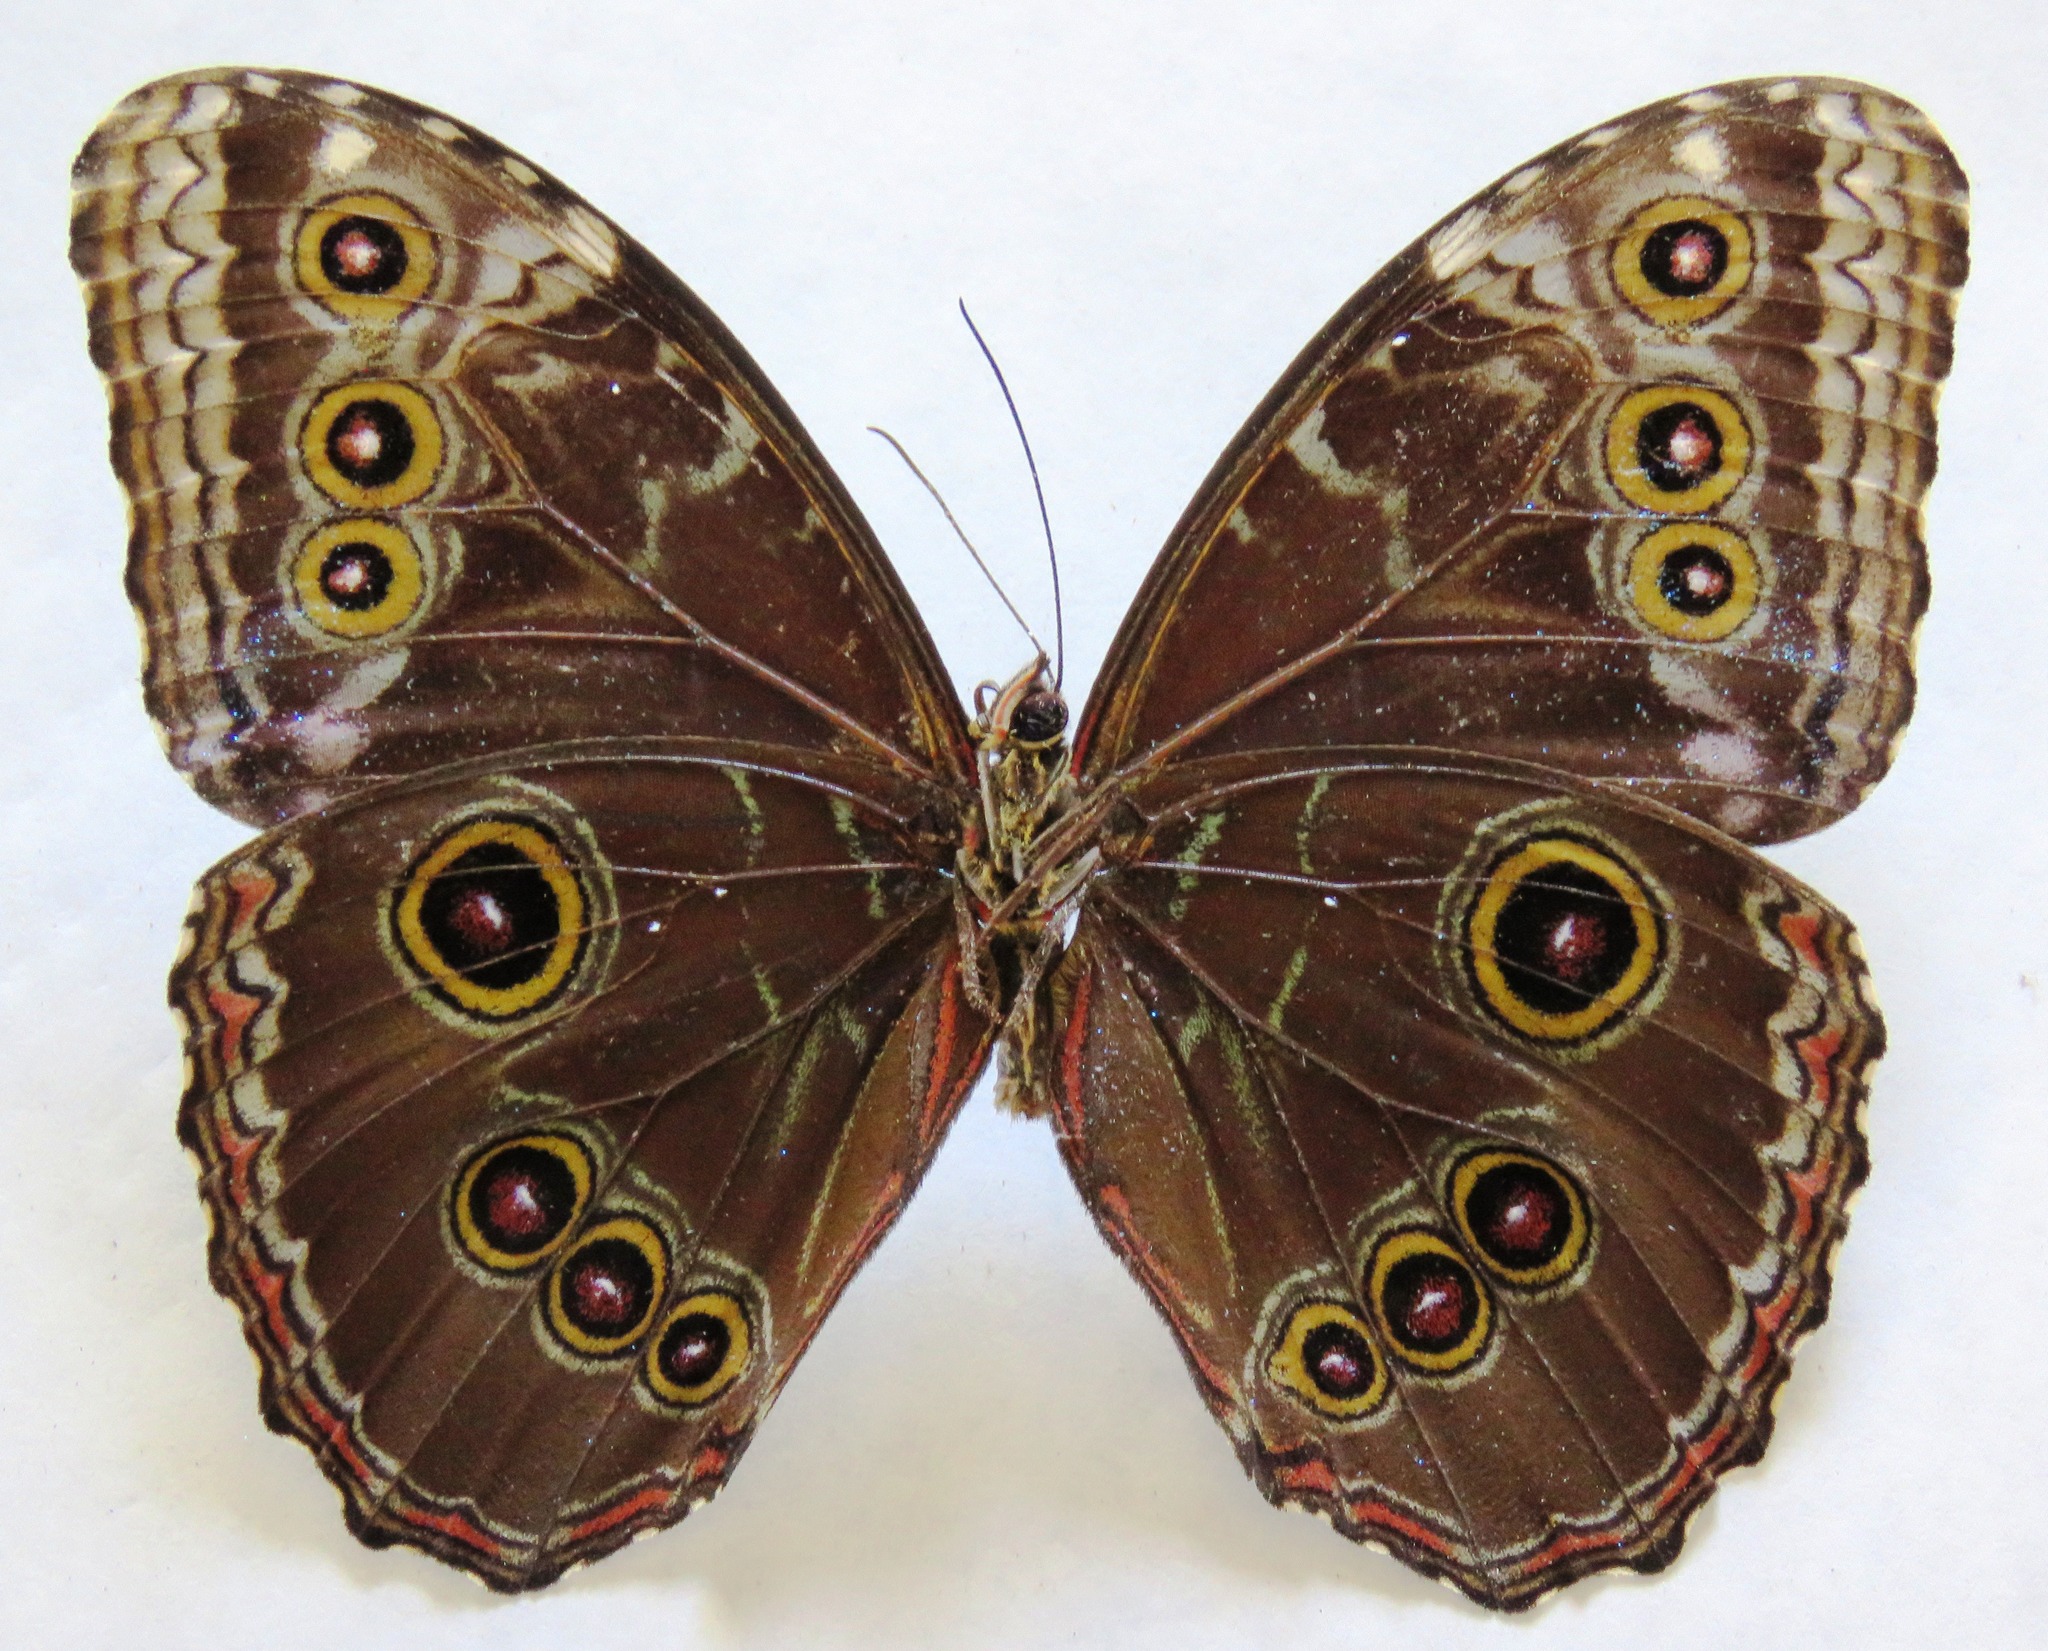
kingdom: Animalia
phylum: Arthropoda
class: Insecta
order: Lepidoptera
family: Nymphalidae
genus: Morpho
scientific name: Morpho helenor
